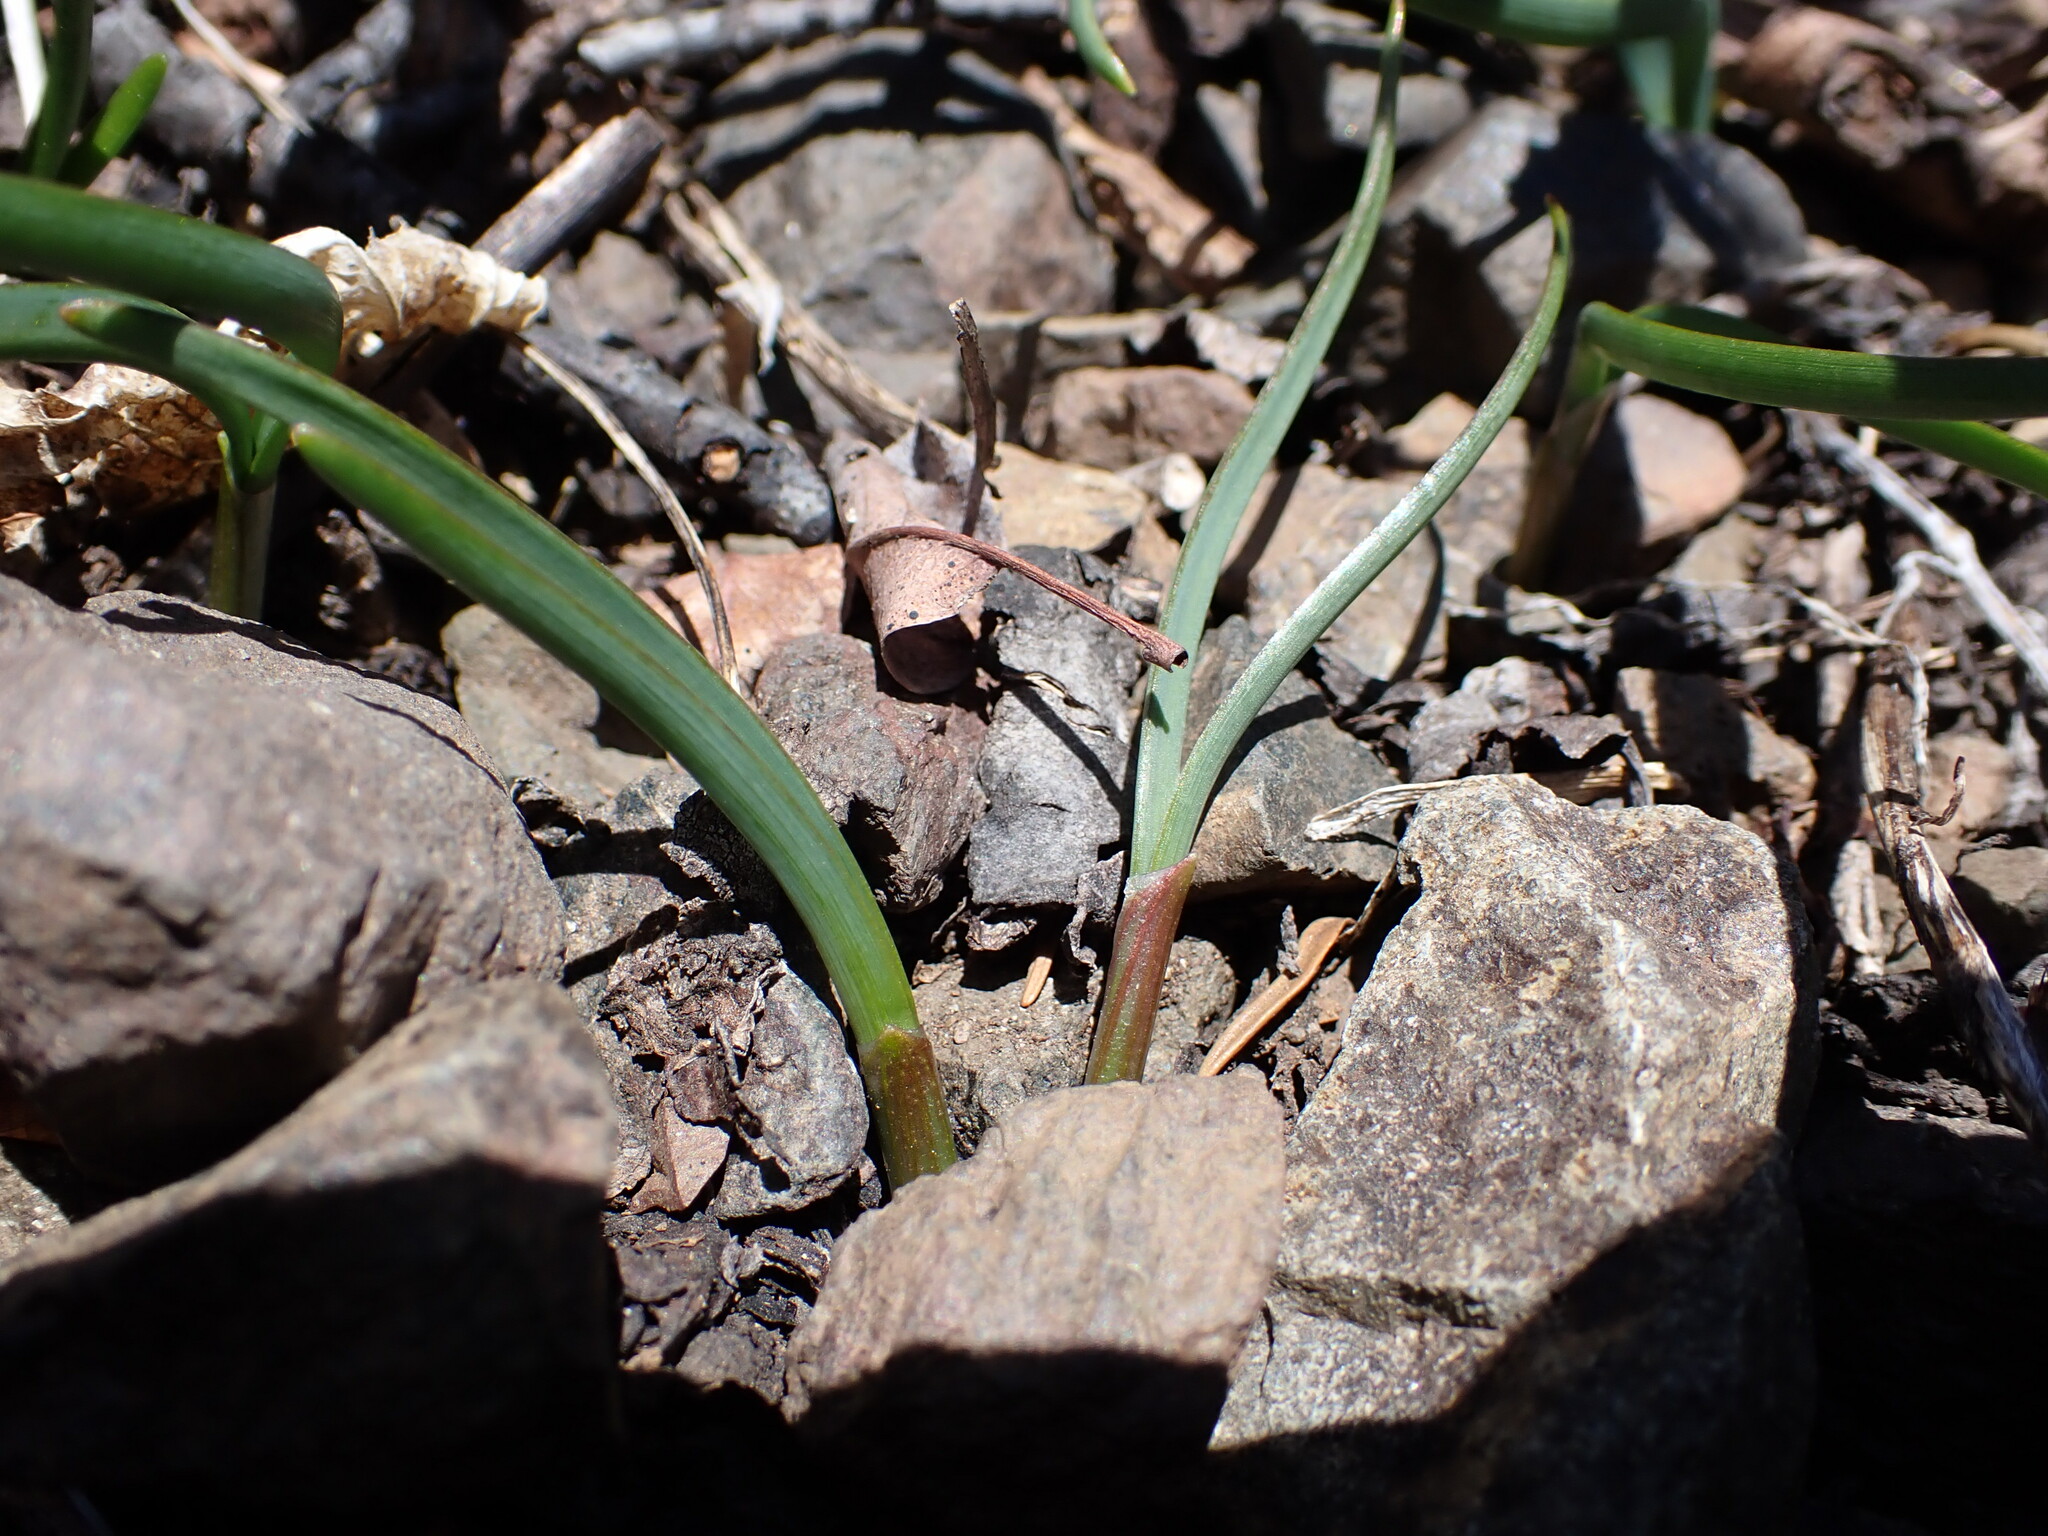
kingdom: Plantae
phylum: Tracheophyta
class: Liliopsida
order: Asparagales
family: Amaryllidaceae
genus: Allium
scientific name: Allium crenulatum
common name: Olympic onion
